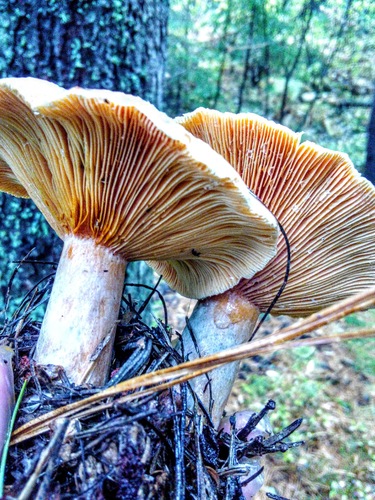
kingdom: Fungi
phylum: Basidiomycota
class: Agaricomycetes
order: Russulales
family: Russulaceae
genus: Lactarius
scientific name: Lactarius deterrimus
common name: False saffron milkcap
